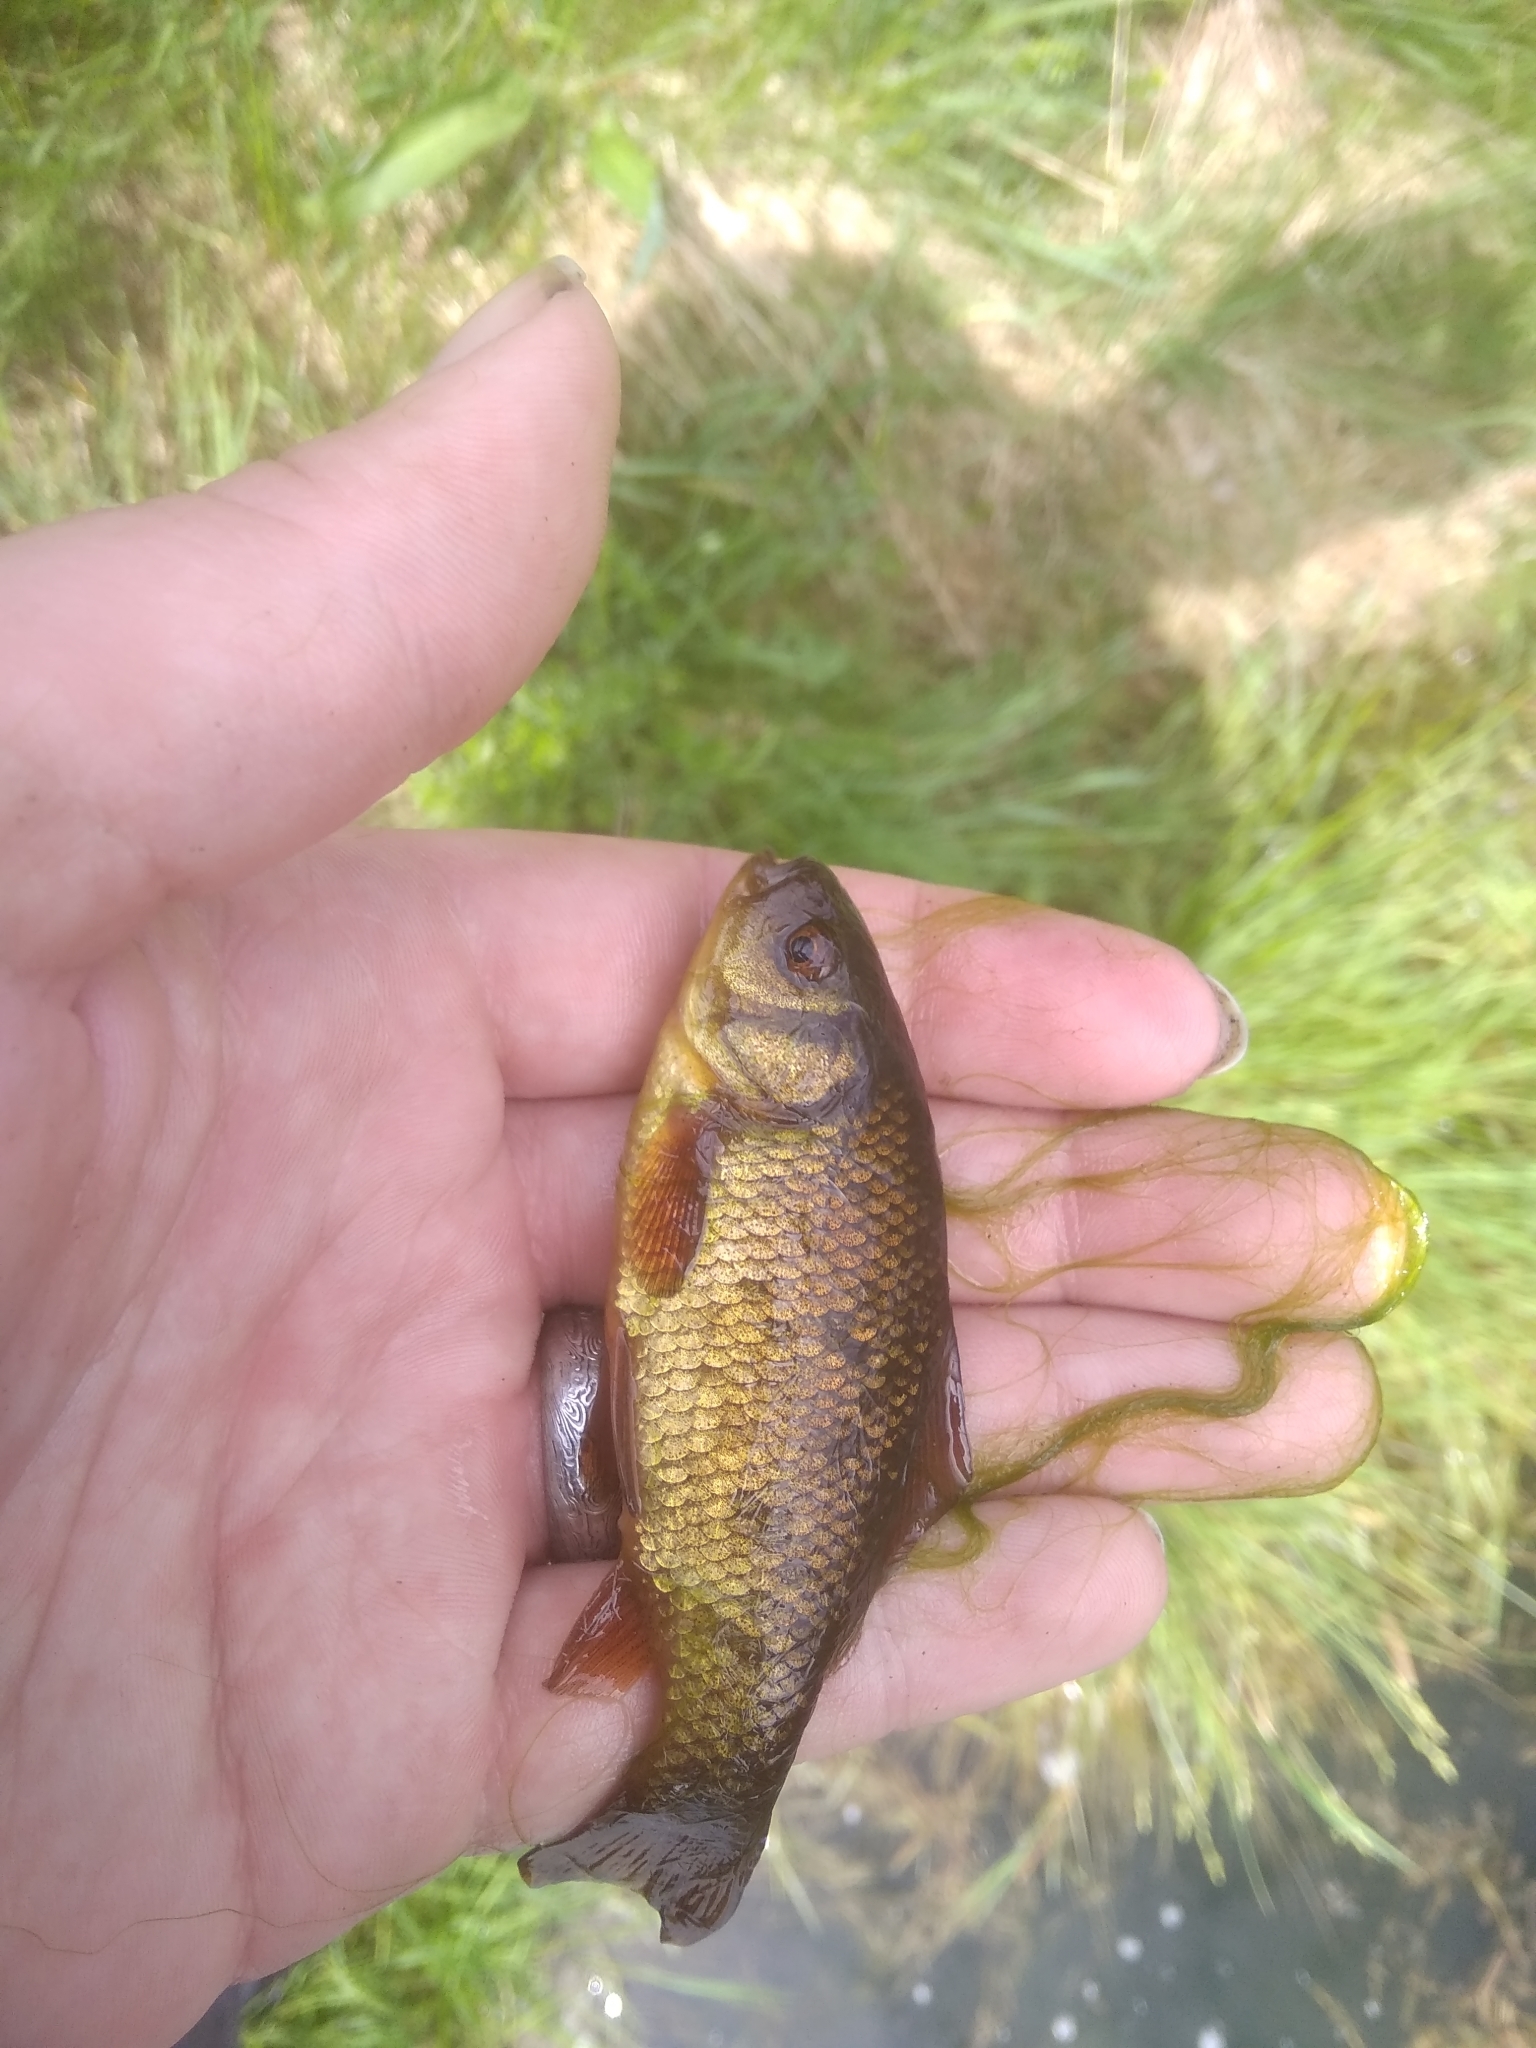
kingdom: Animalia
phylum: Chordata
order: Cypriniformes
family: Cyprinidae
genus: Carassius
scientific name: Carassius carassius
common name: Crucian carp
